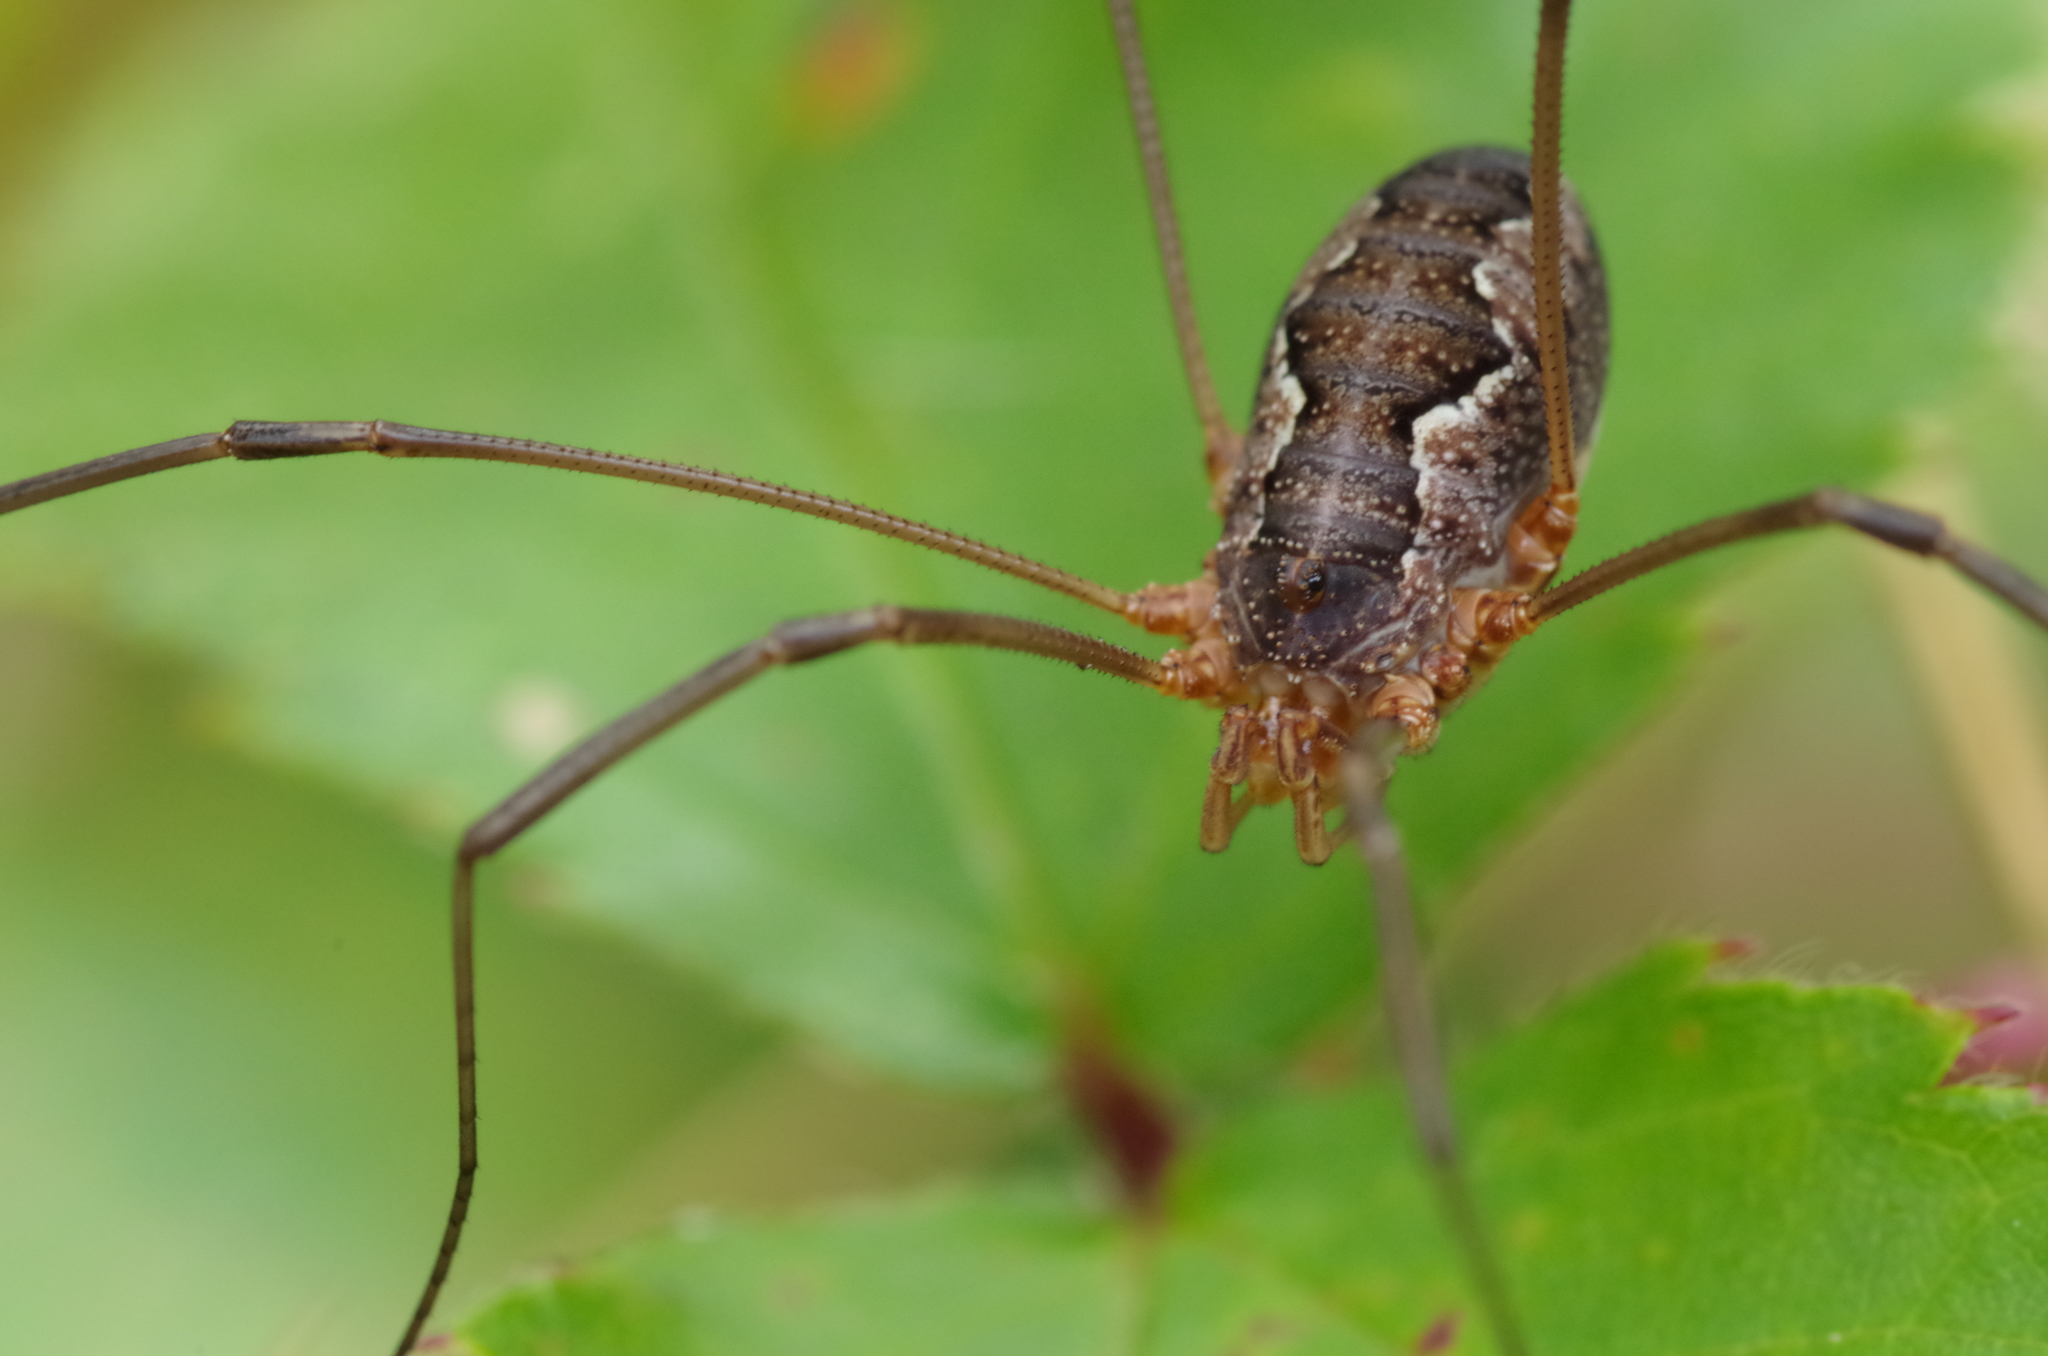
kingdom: Animalia
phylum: Arthropoda
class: Arachnida
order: Opiliones
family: Phalangiidae
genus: Phalangium
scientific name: Phalangium opilio
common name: Daddy longleg
